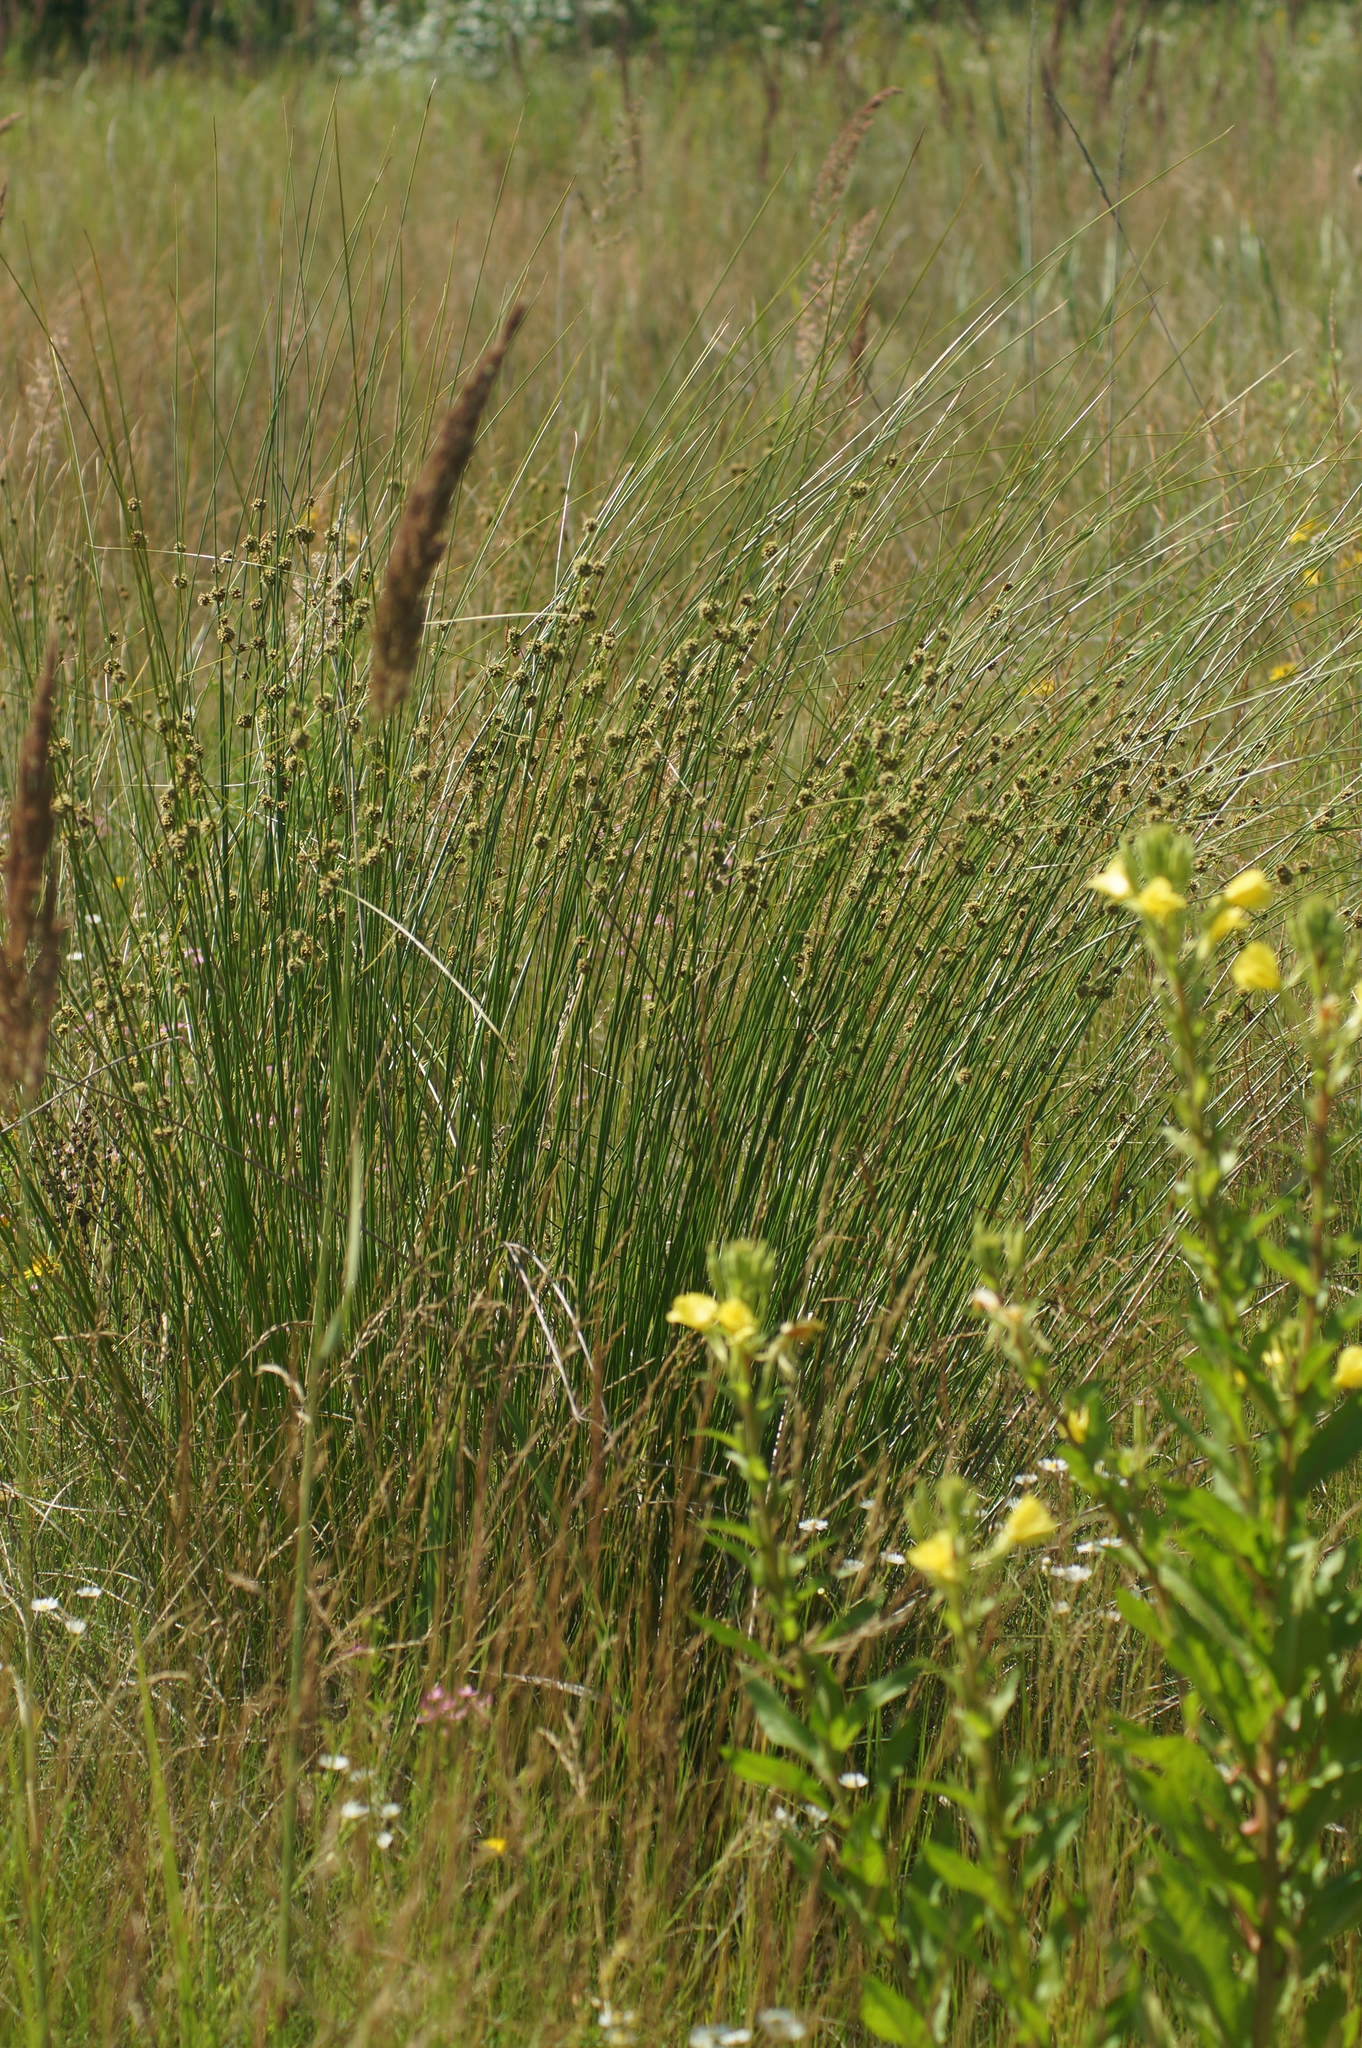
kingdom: Plantae
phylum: Tracheophyta
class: Liliopsida
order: Poales
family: Cyperaceae
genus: Scirpoides
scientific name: Scirpoides holoschoenus
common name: Round-headed club-rush
